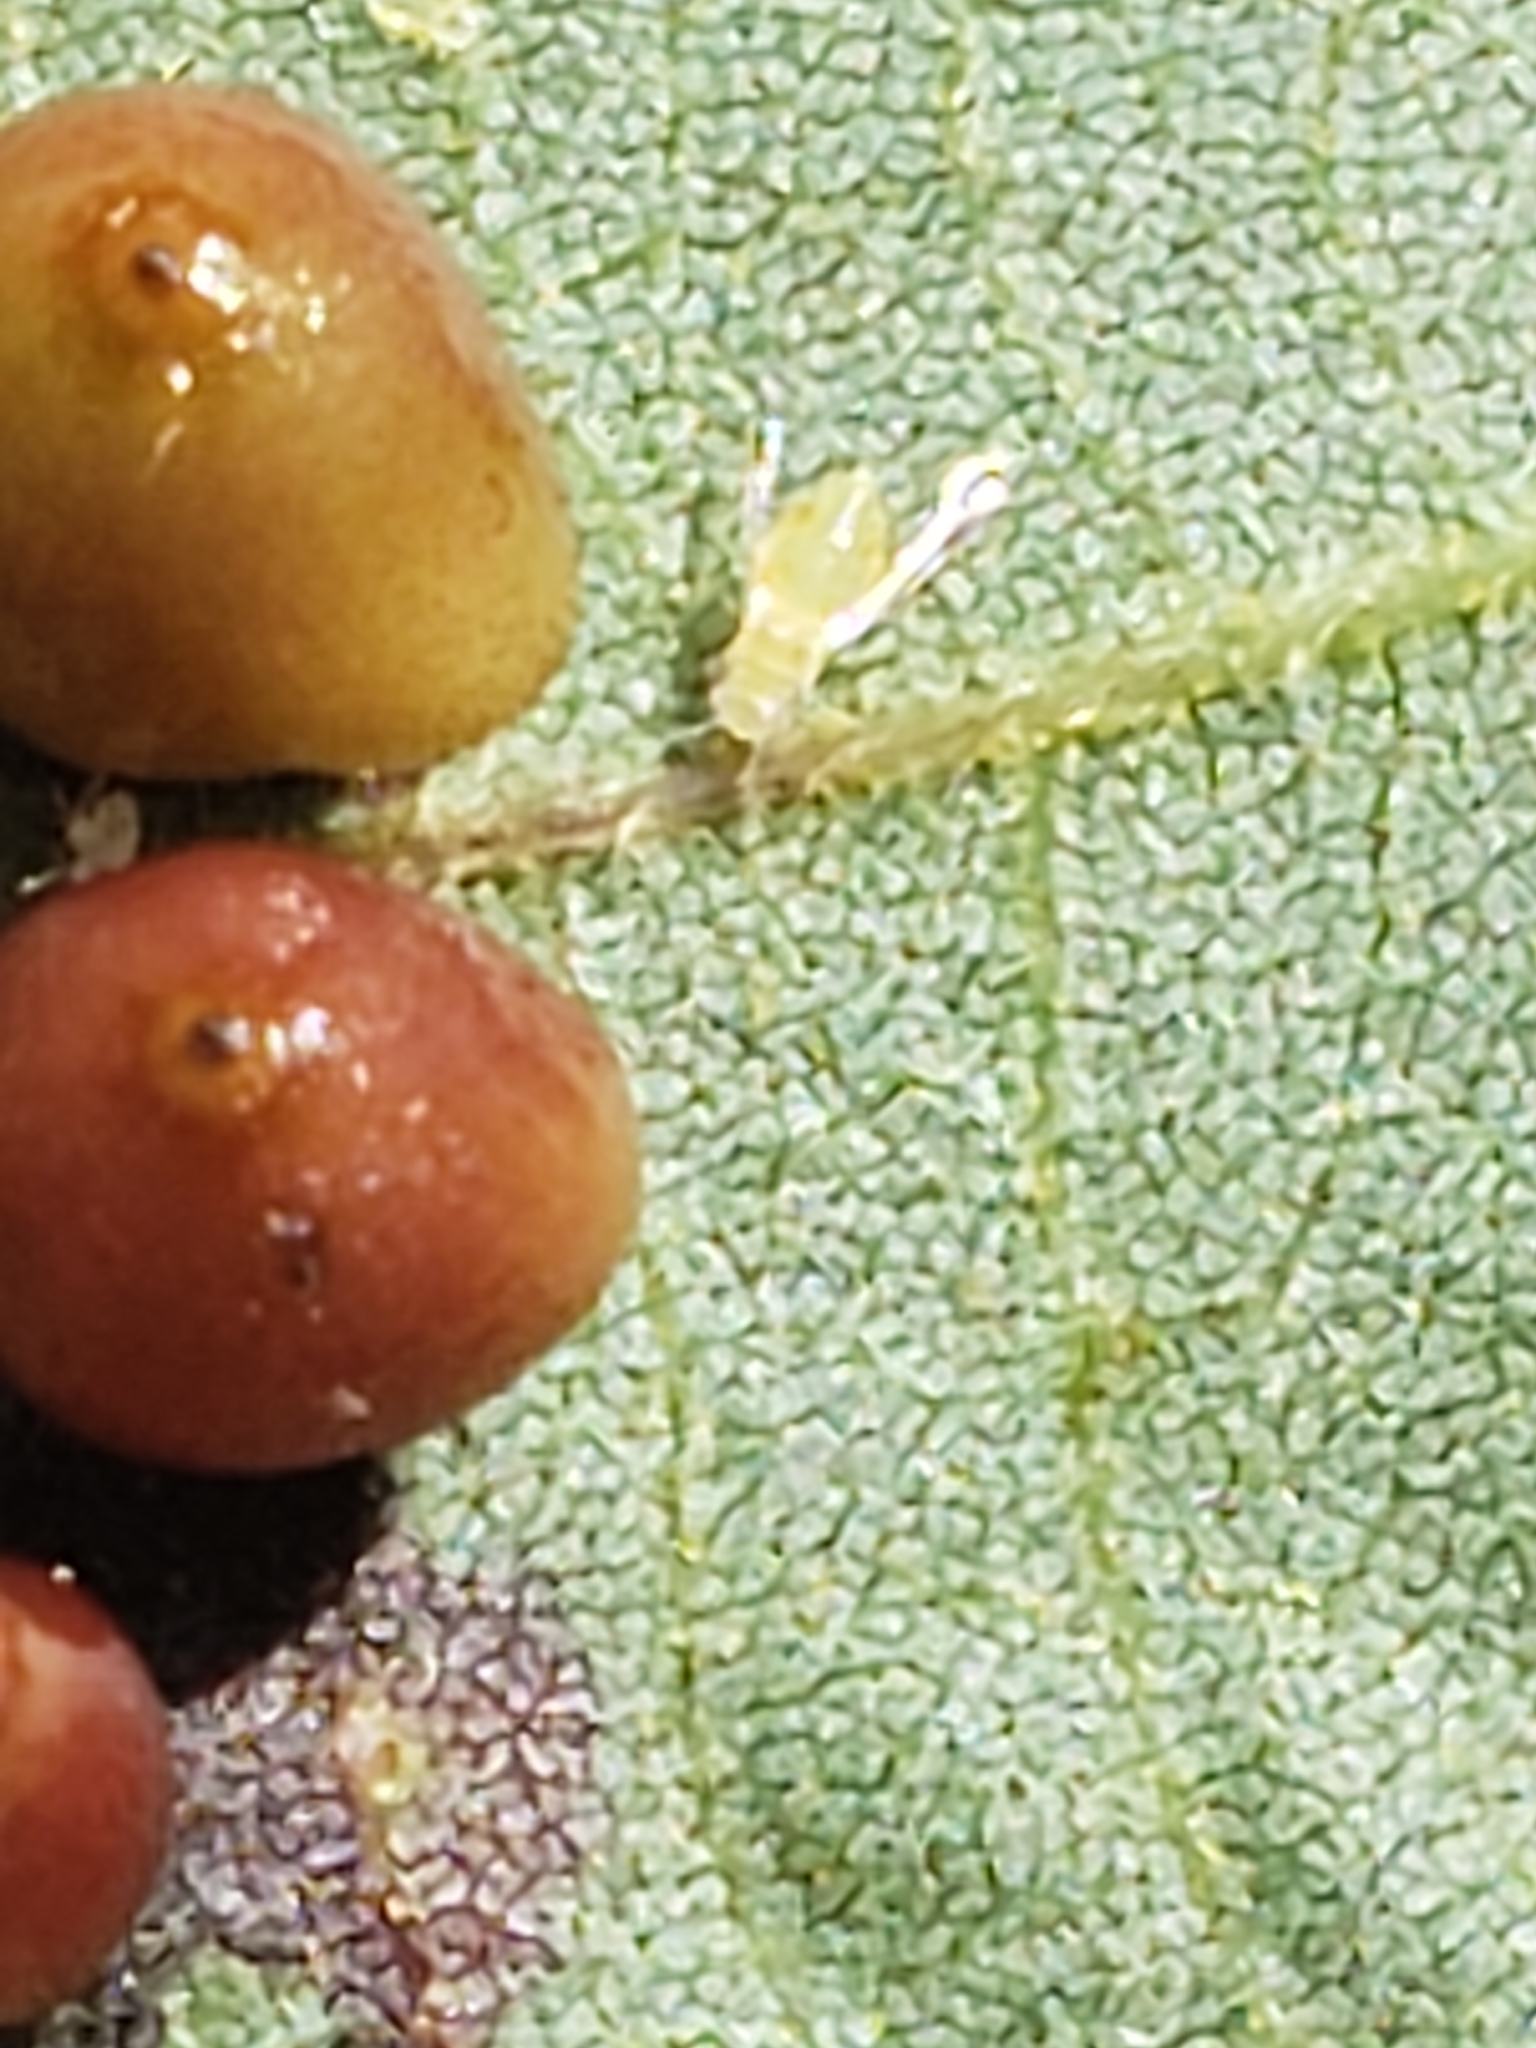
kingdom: Animalia
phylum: Arthropoda
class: Insecta
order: Diptera
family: Cecidomyiidae
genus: Caryomyia
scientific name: Caryomyia caryae
